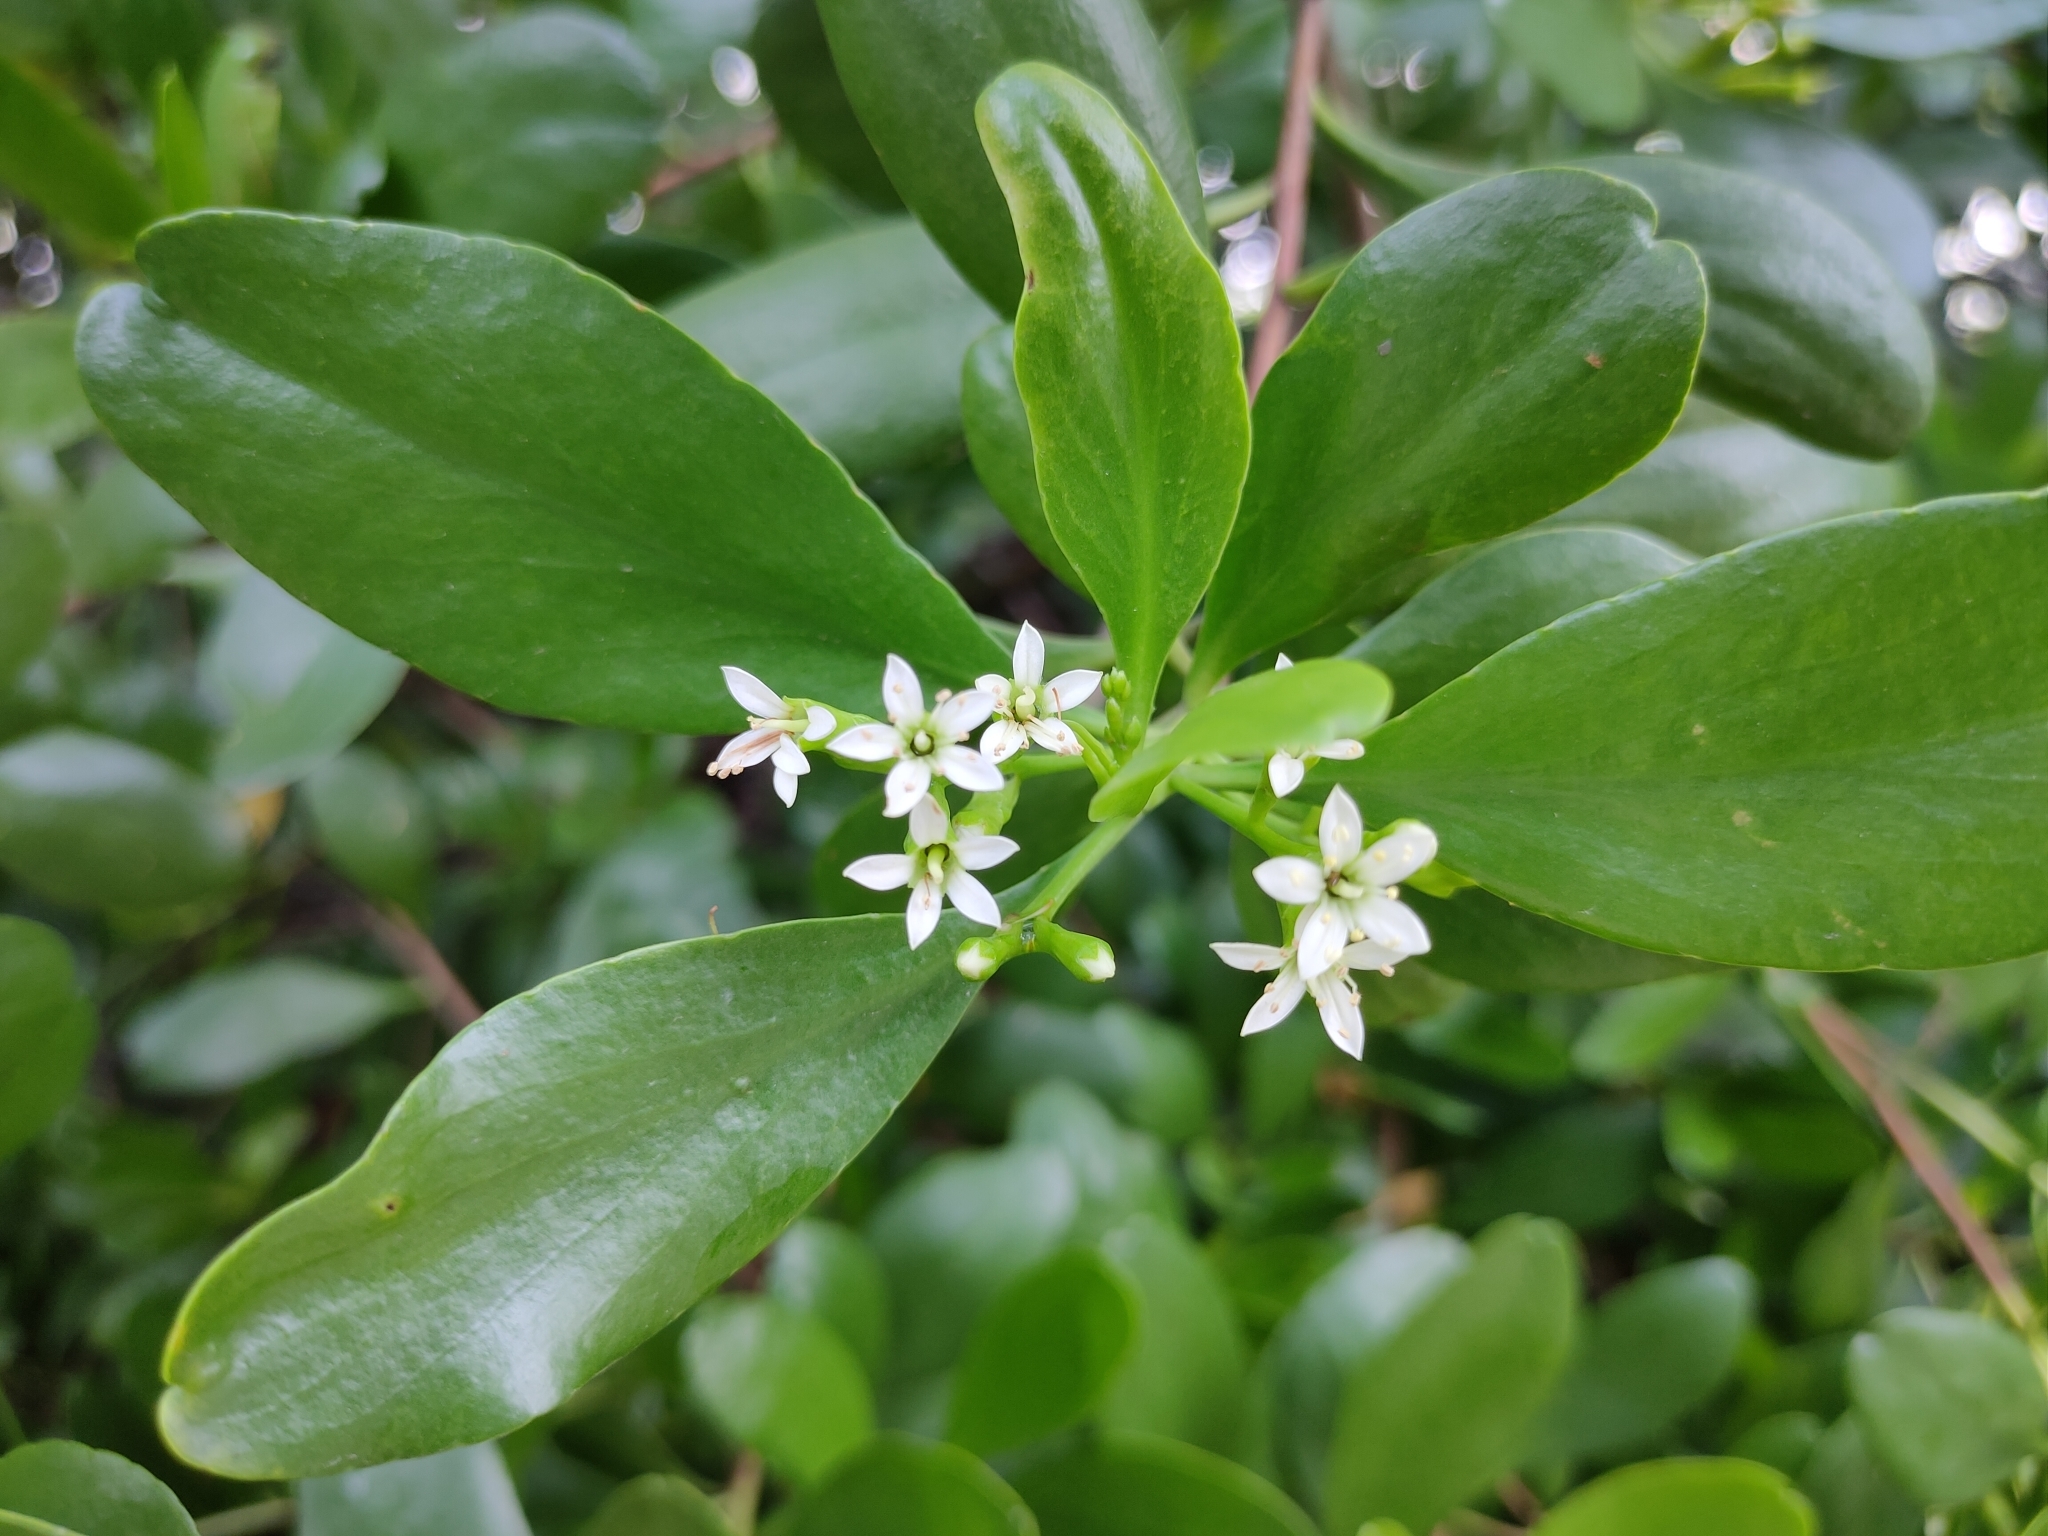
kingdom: Plantae
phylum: Tracheophyta
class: Magnoliopsida
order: Myrtales
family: Combretaceae
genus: Lumnitzera
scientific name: Lumnitzera racemosa
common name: White-flowered black mangrove
